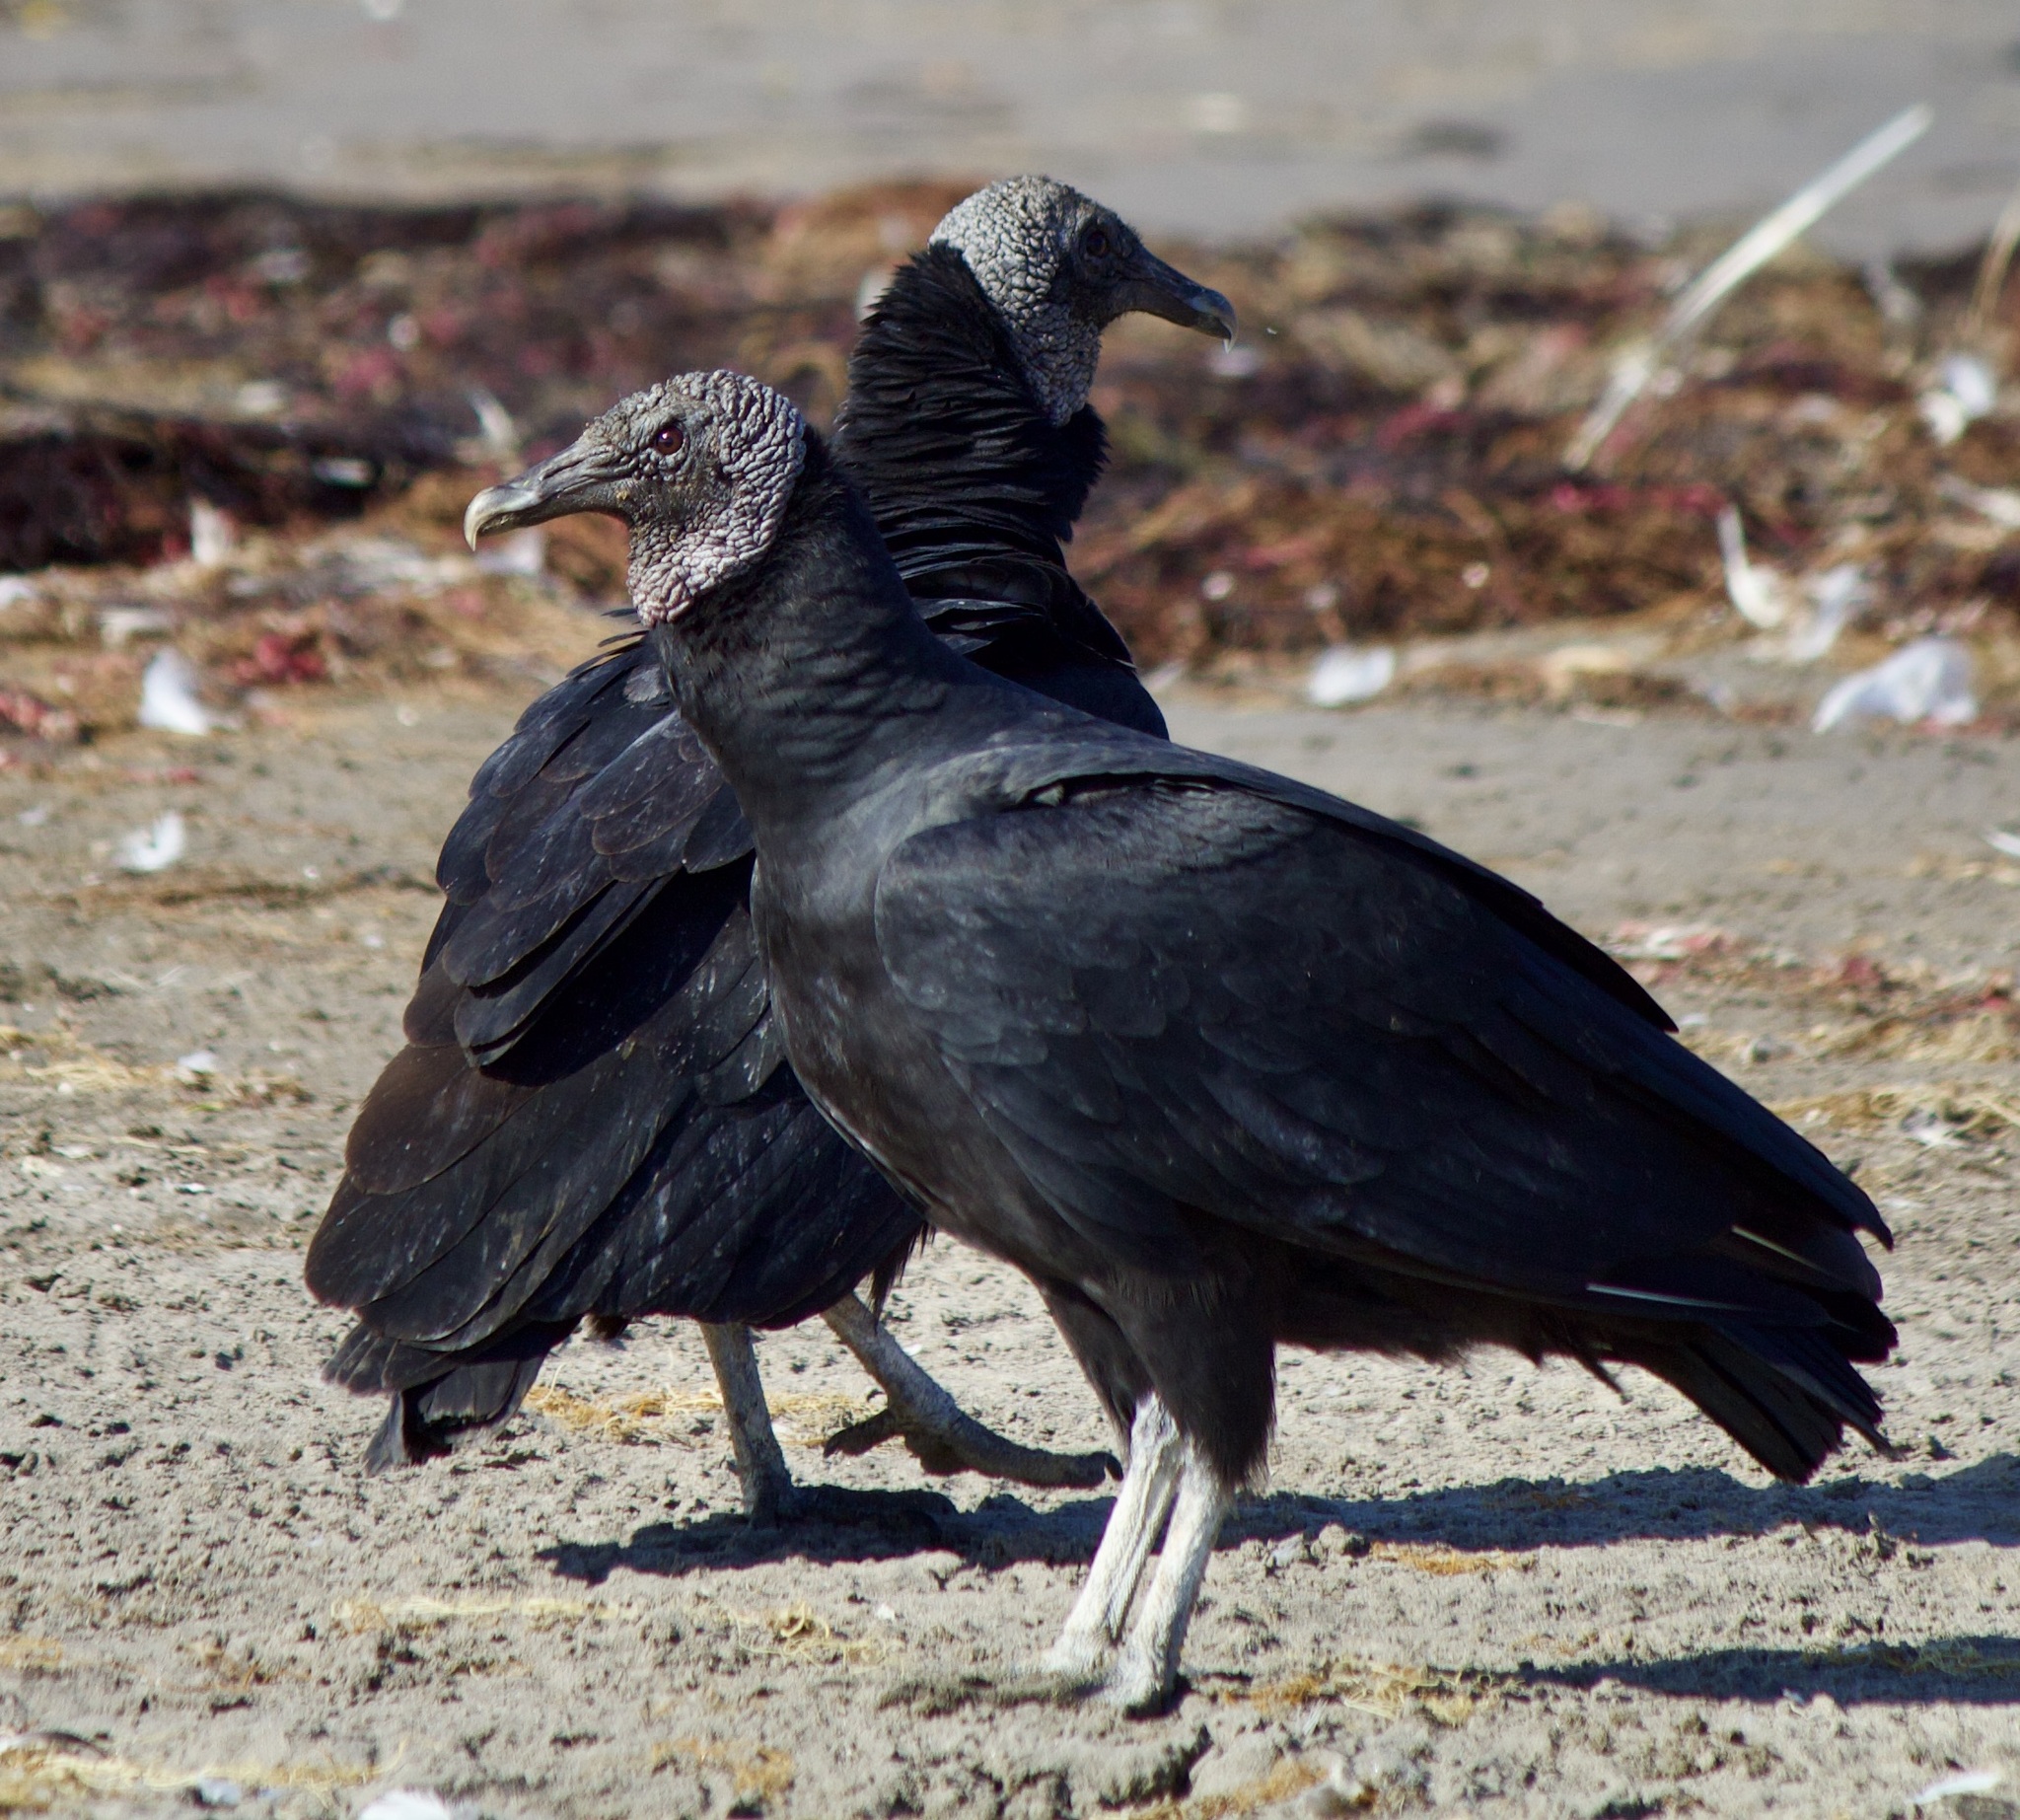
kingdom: Animalia
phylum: Chordata
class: Aves
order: Accipitriformes
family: Cathartidae
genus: Coragyps
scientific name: Coragyps atratus
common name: Black vulture
